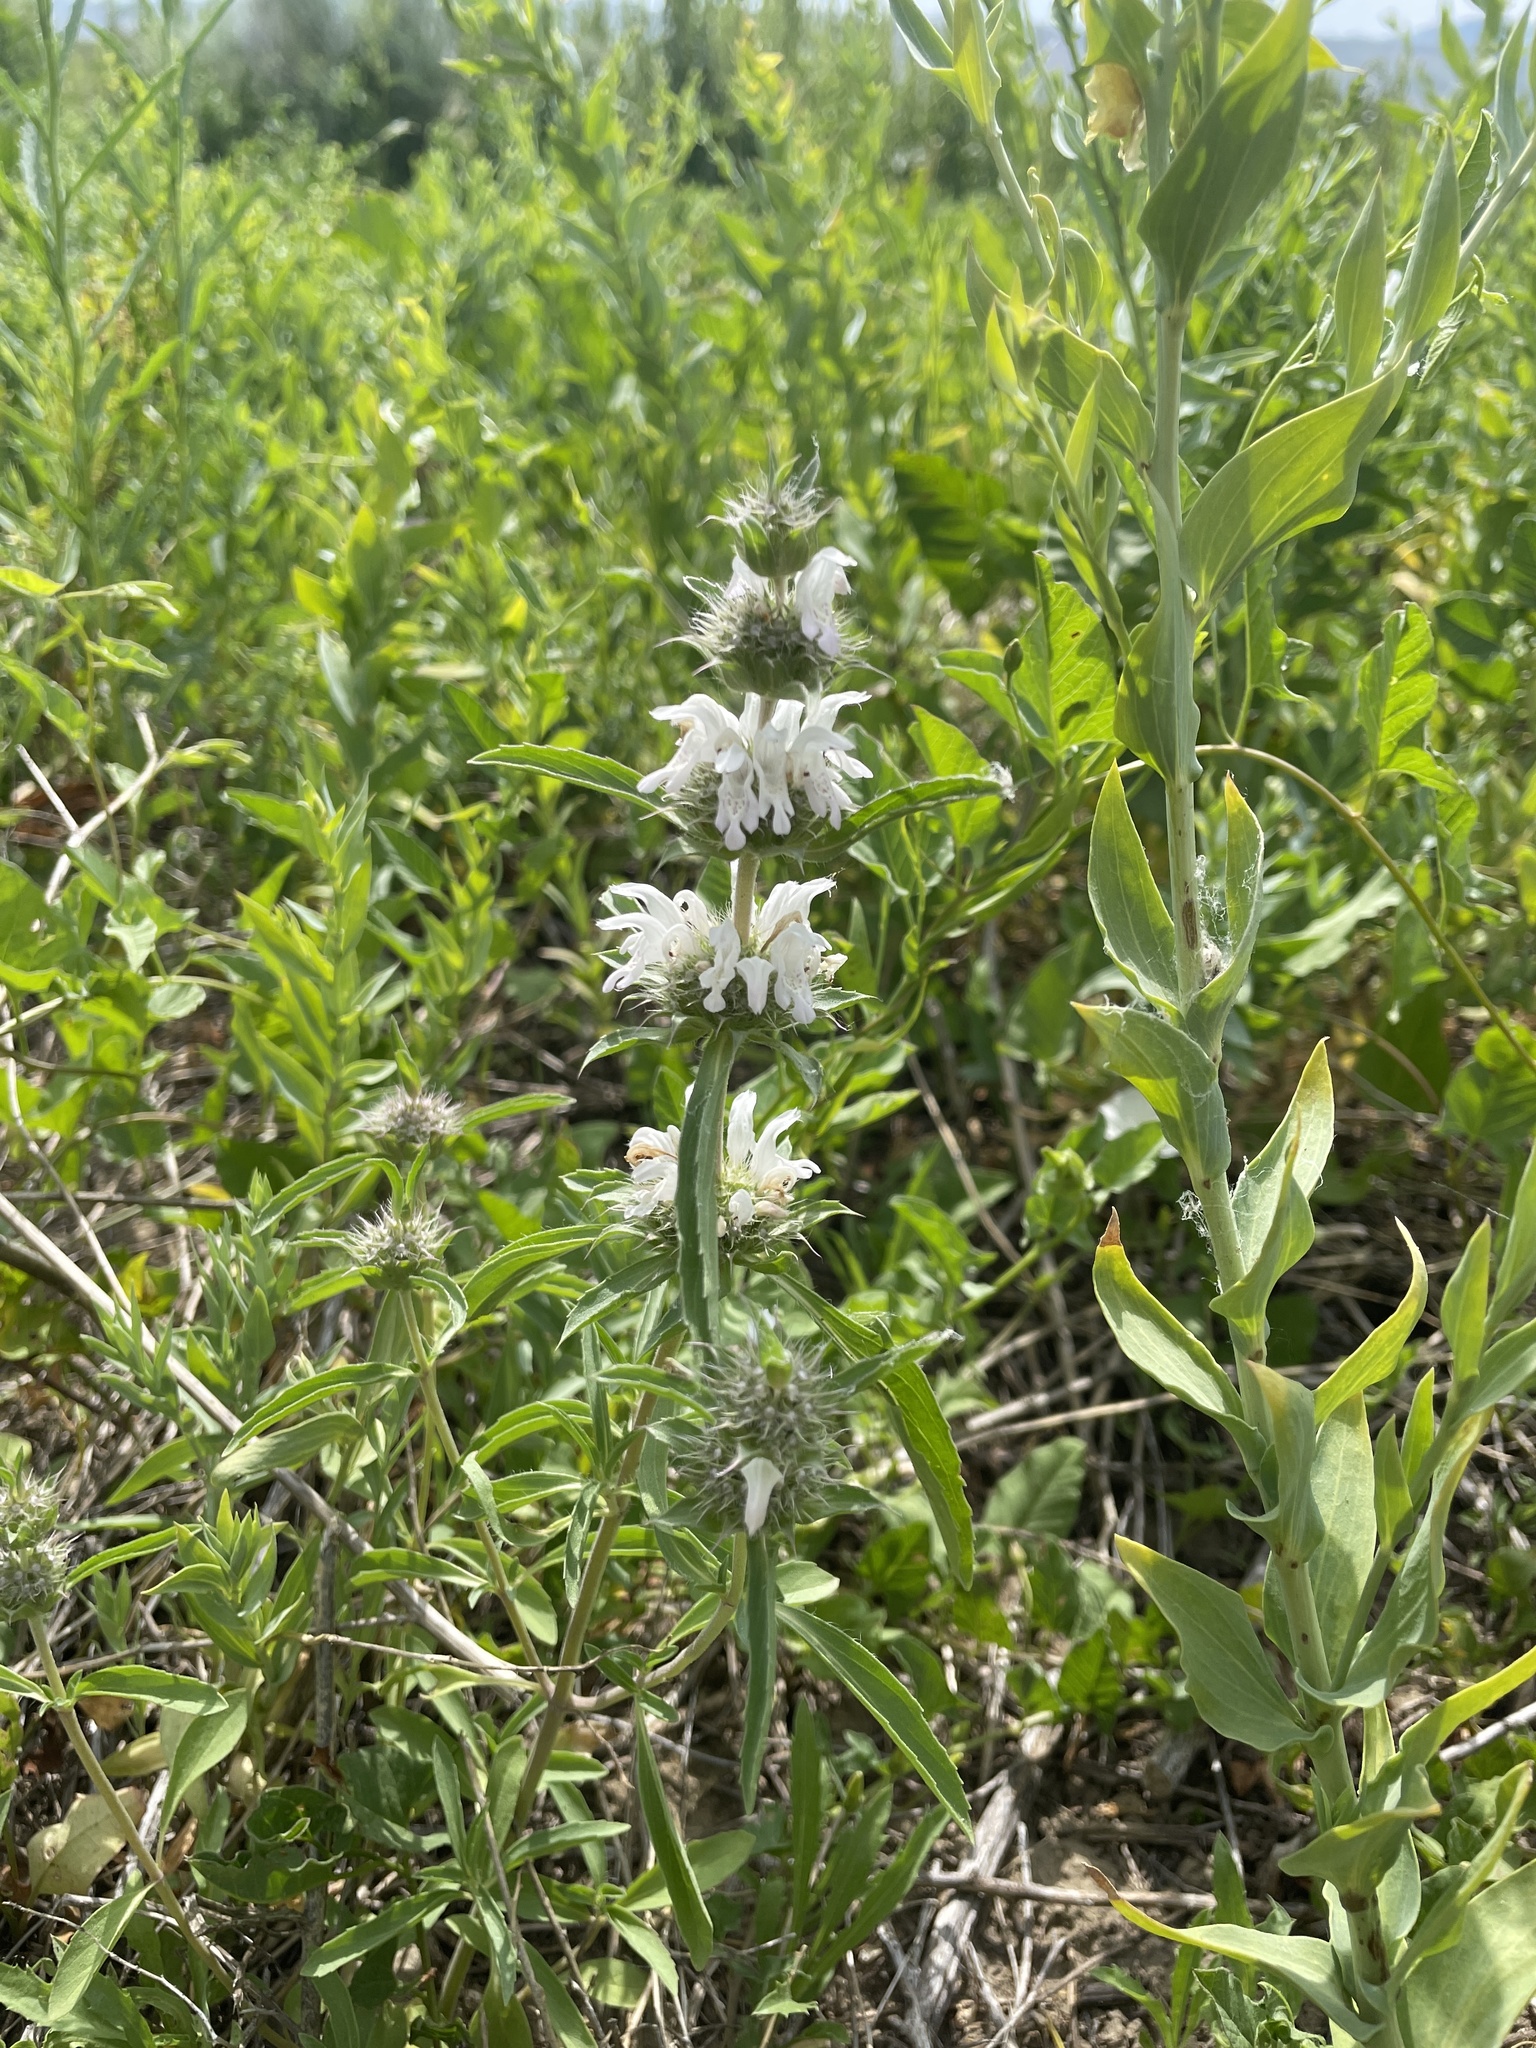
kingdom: Plantae
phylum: Tracheophyta
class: Magnoliopsida
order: Lamiales
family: Lamiaceae
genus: Monarda
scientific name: Monarda pectinata
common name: Plains beebalm
